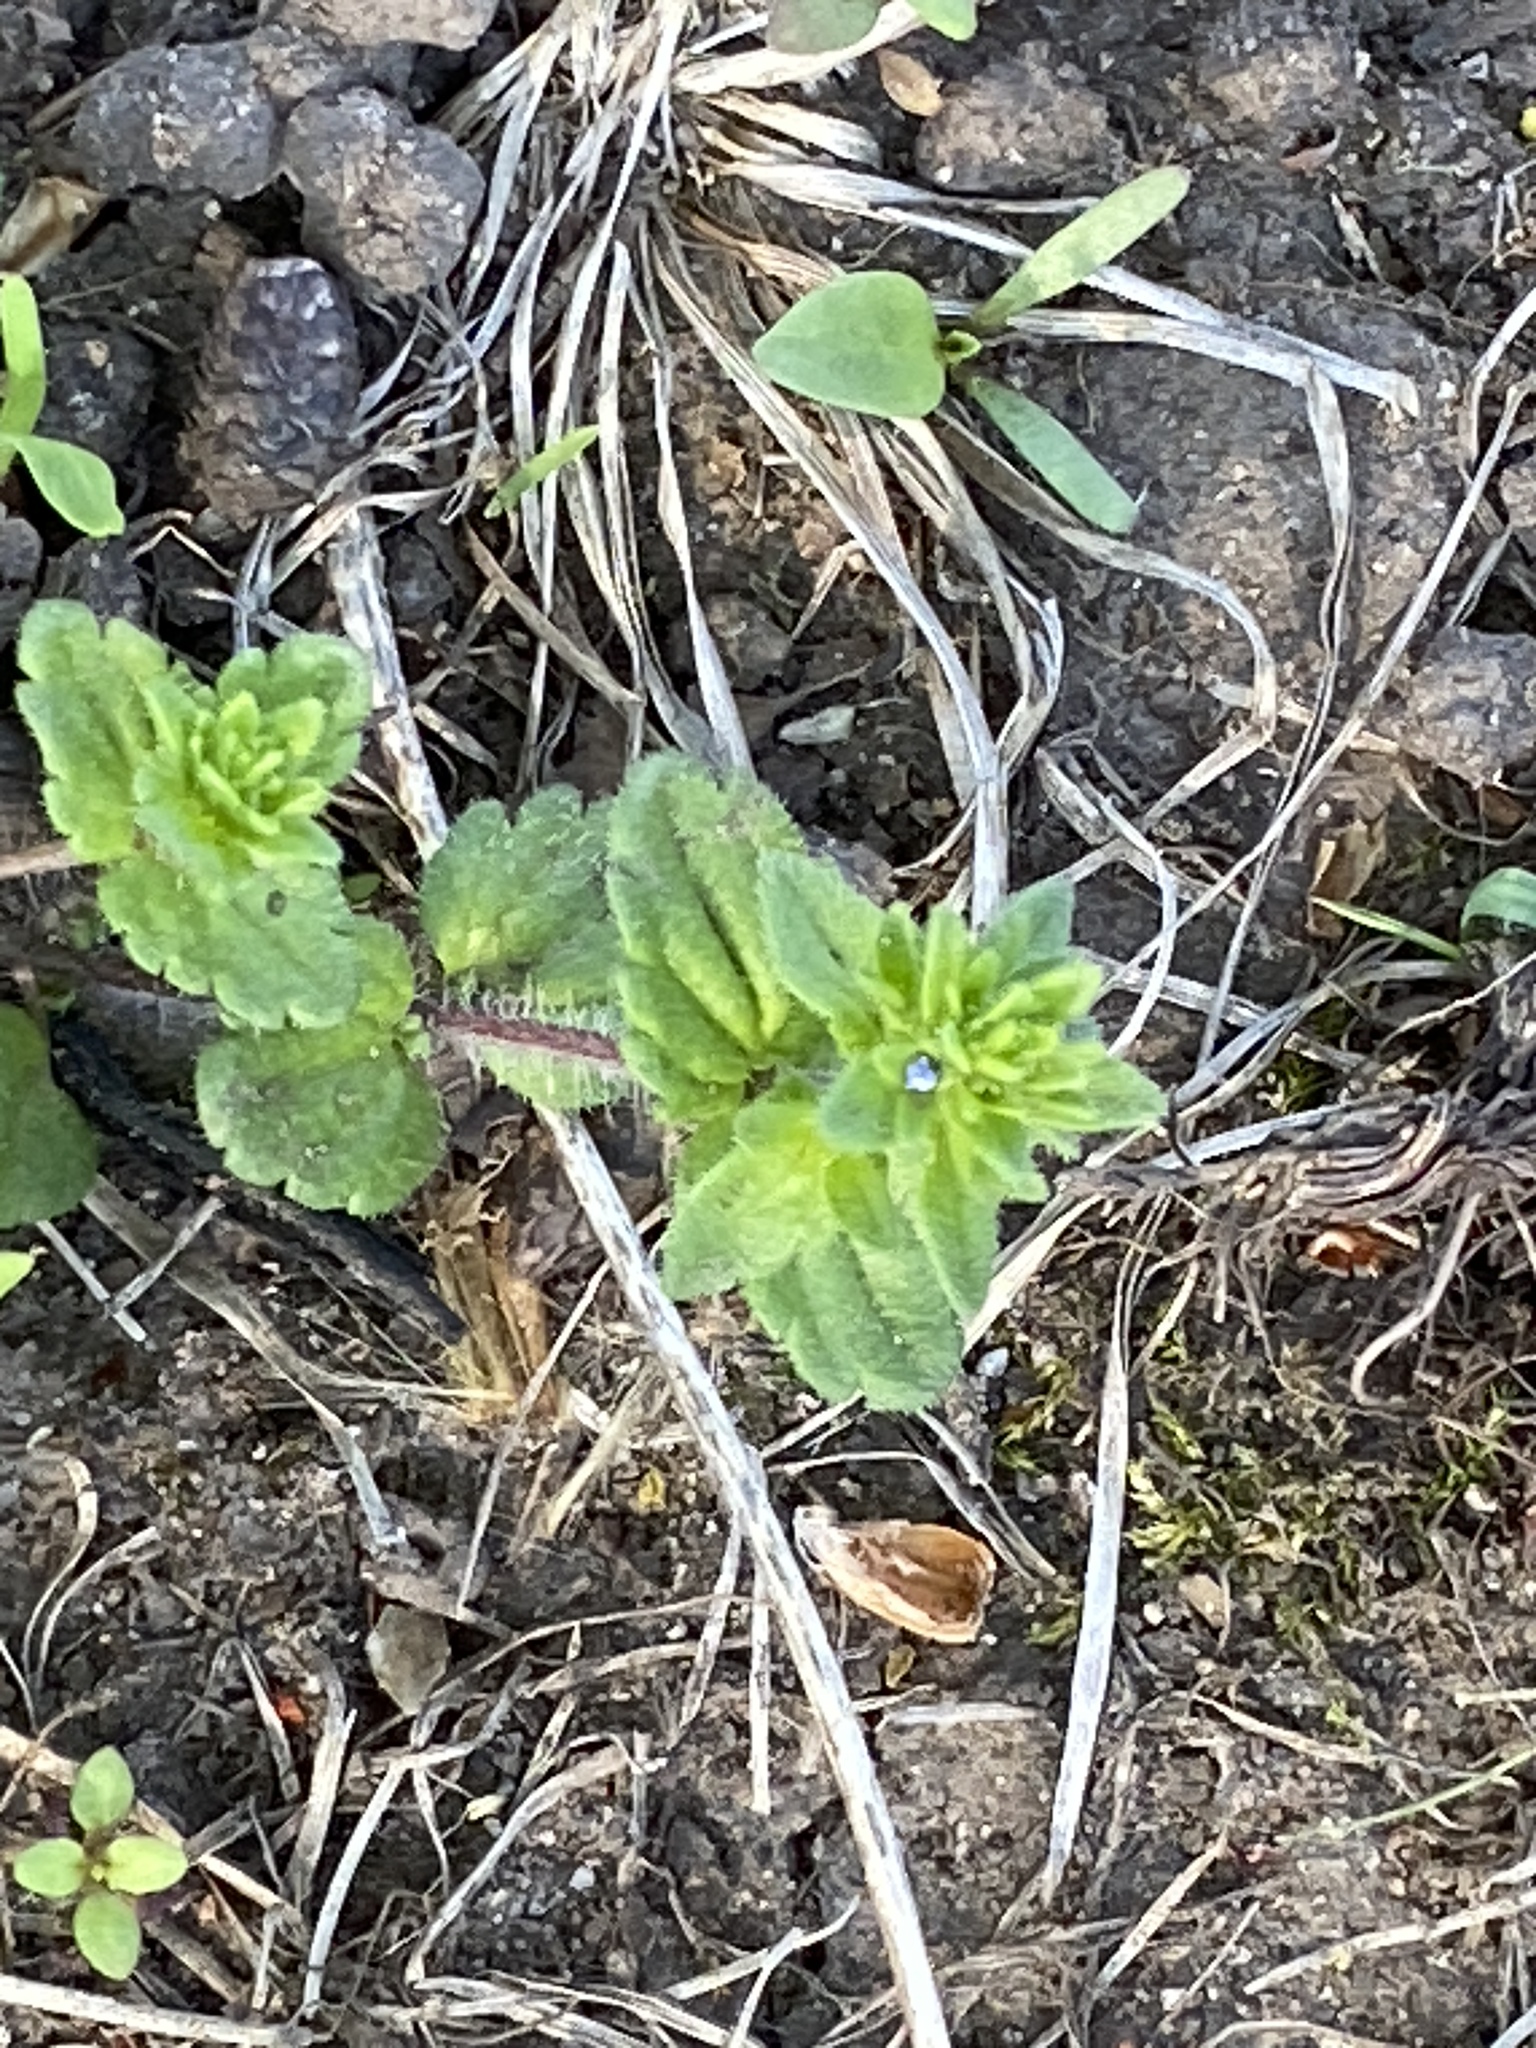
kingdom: Plantae
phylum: Tracheophyta
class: Magnoliopsida
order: Lamiales
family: Plantaginaceae
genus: Veronica
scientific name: Veronica arvensis
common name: Corn speedwell
